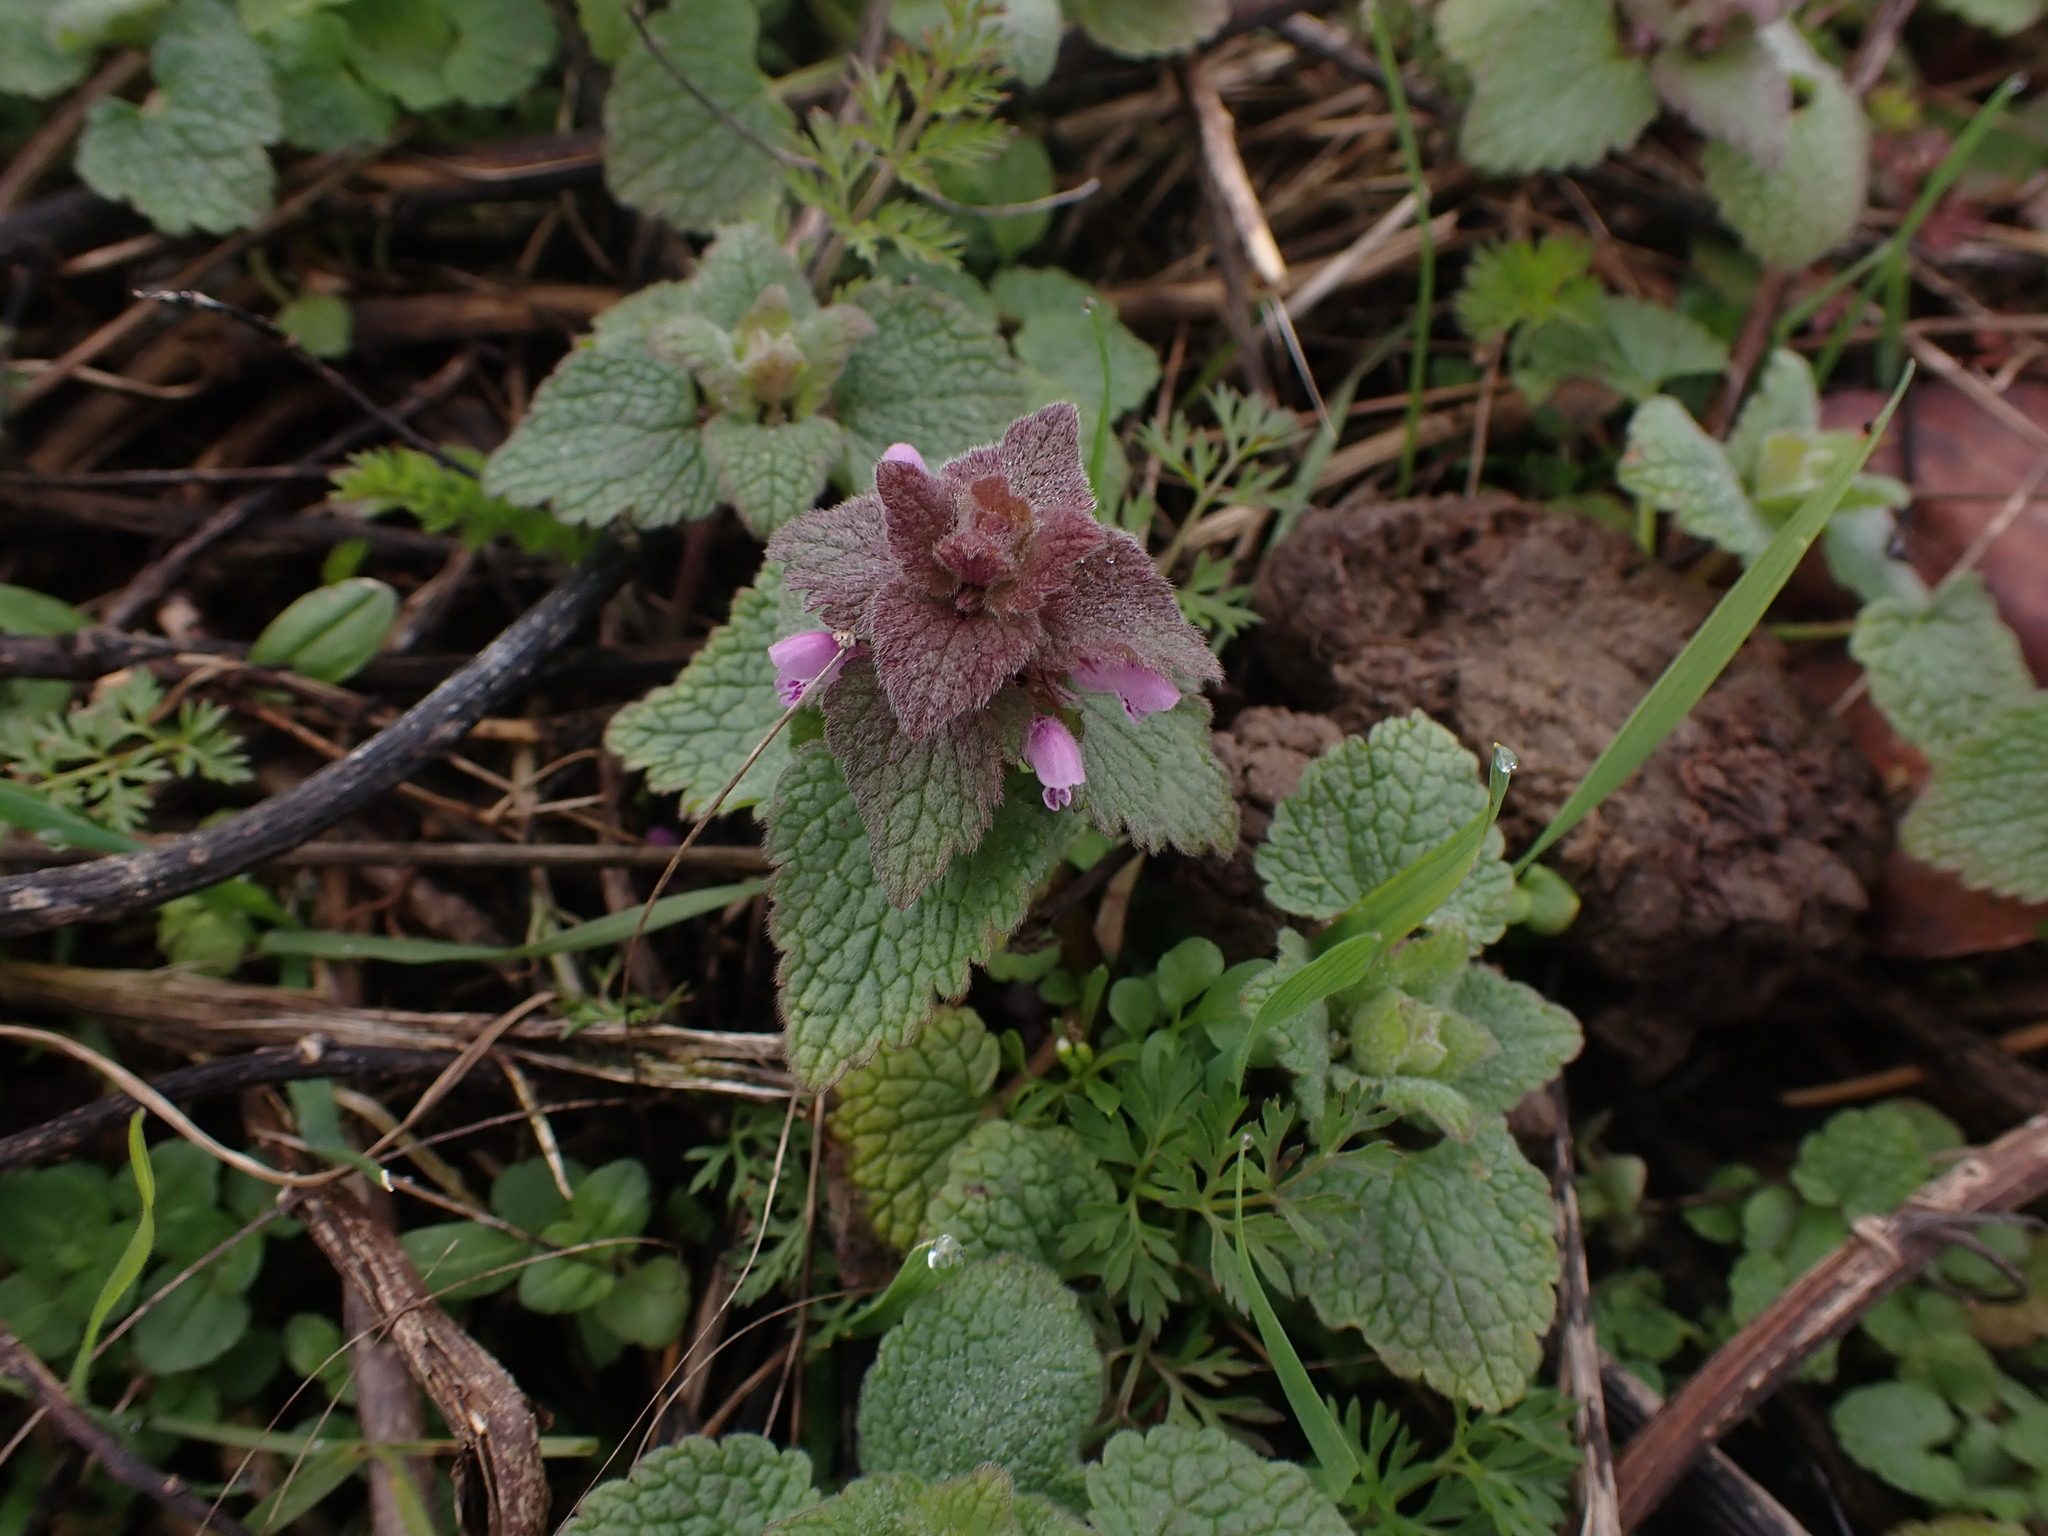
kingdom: Plantae
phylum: Tracheophyta
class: Magnoliopsida
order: Lamiales
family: Lamiaceae
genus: Lamium
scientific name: Lamium purpureum
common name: Red dead-nettle
